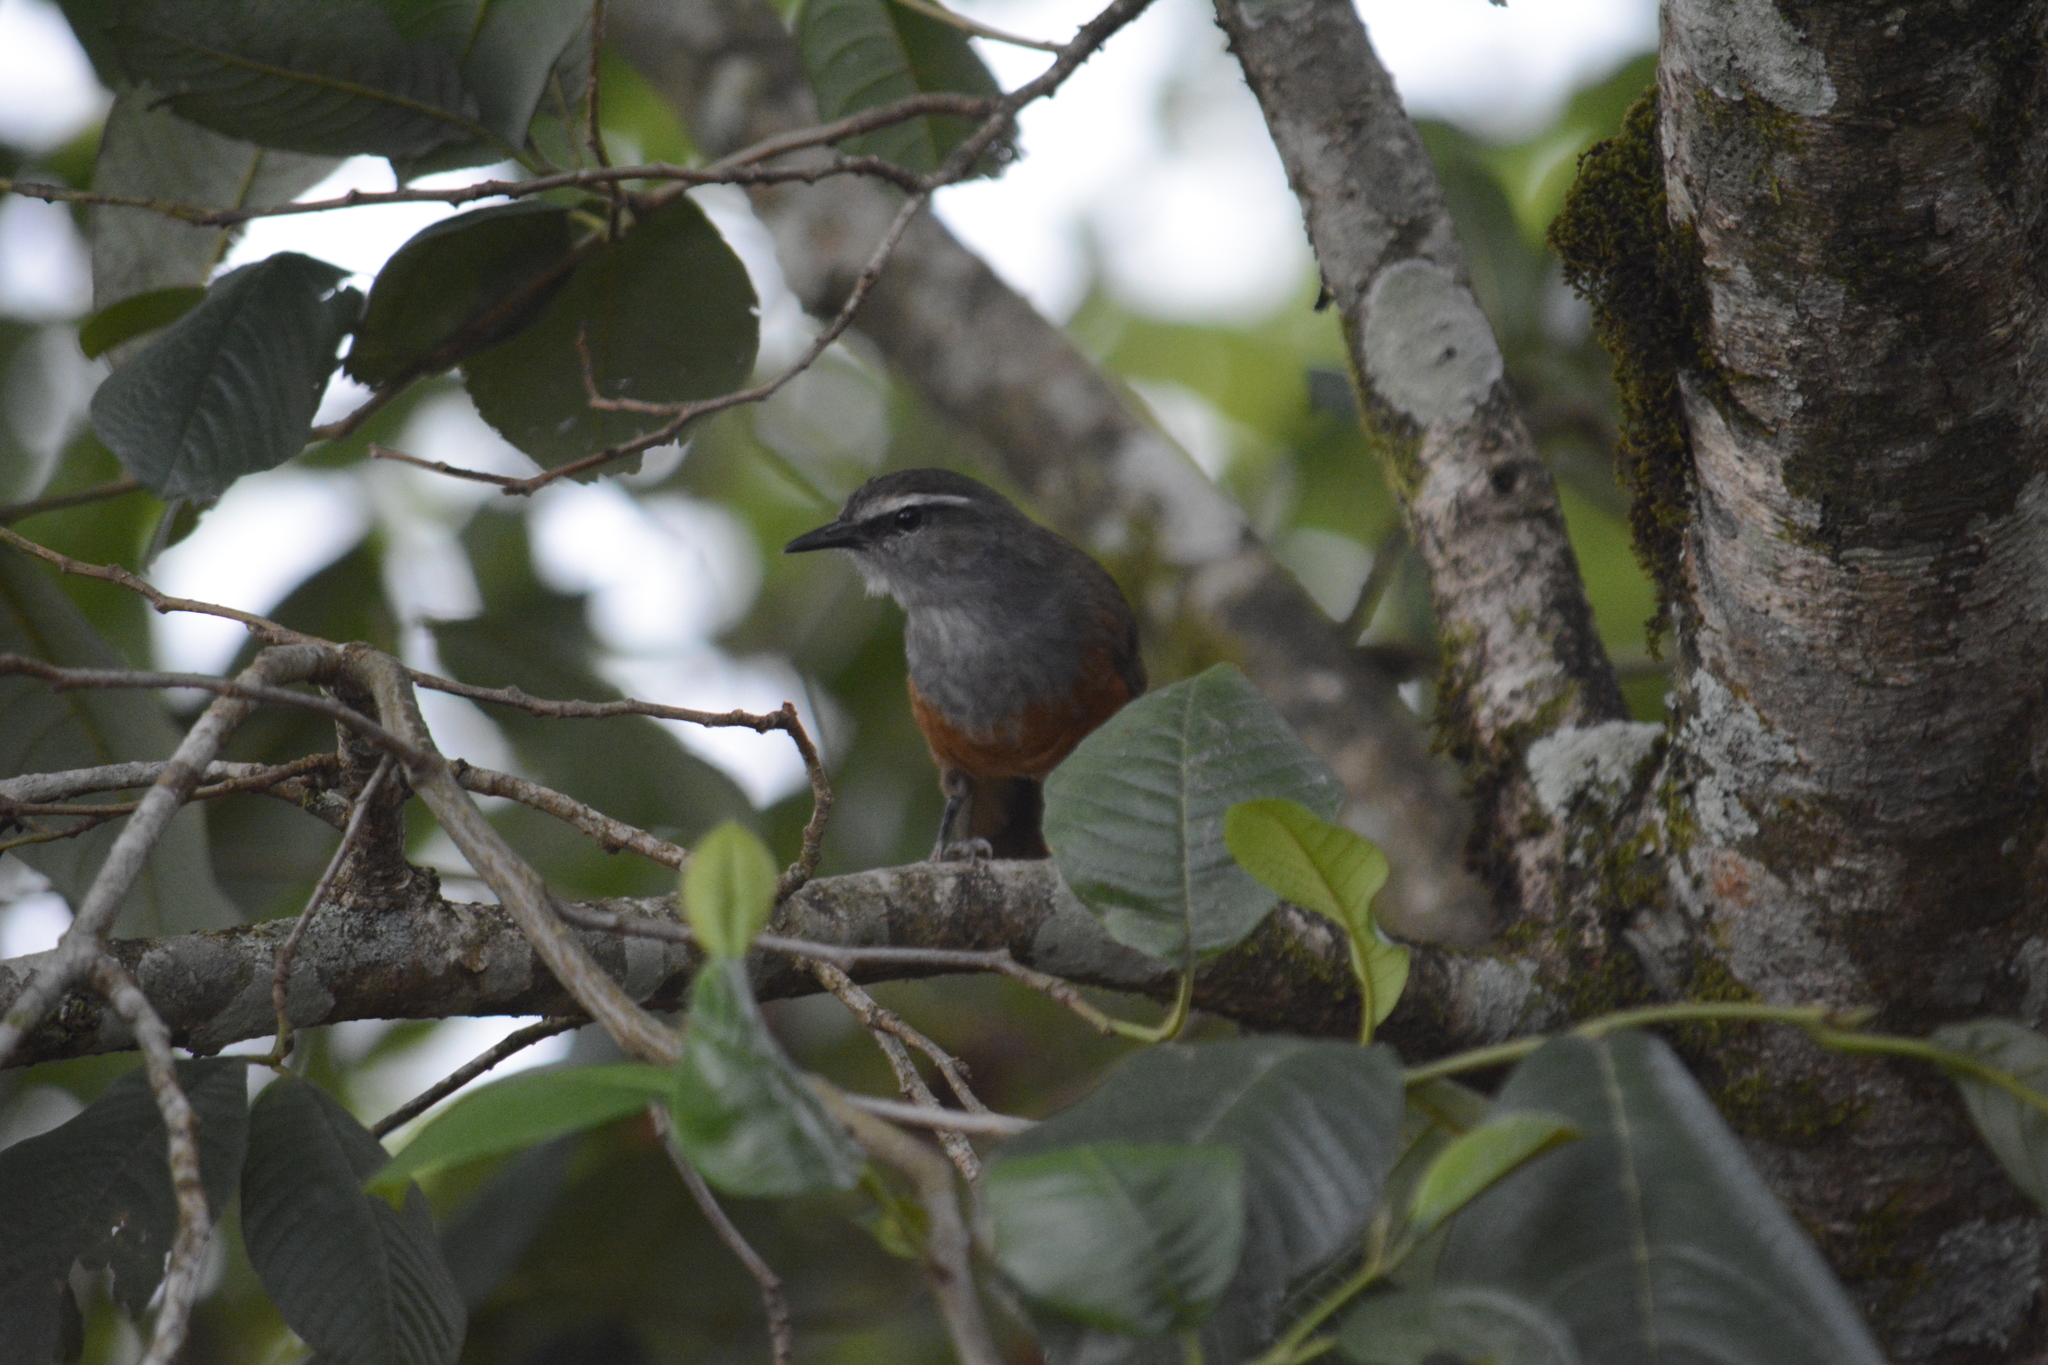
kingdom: Animalia
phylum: Chordata
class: Aves
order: Passeriformes
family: Leiothrichidae
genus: Trochalopteron
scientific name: Trochalopteron fairbanki
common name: Kerala laughingthrush
